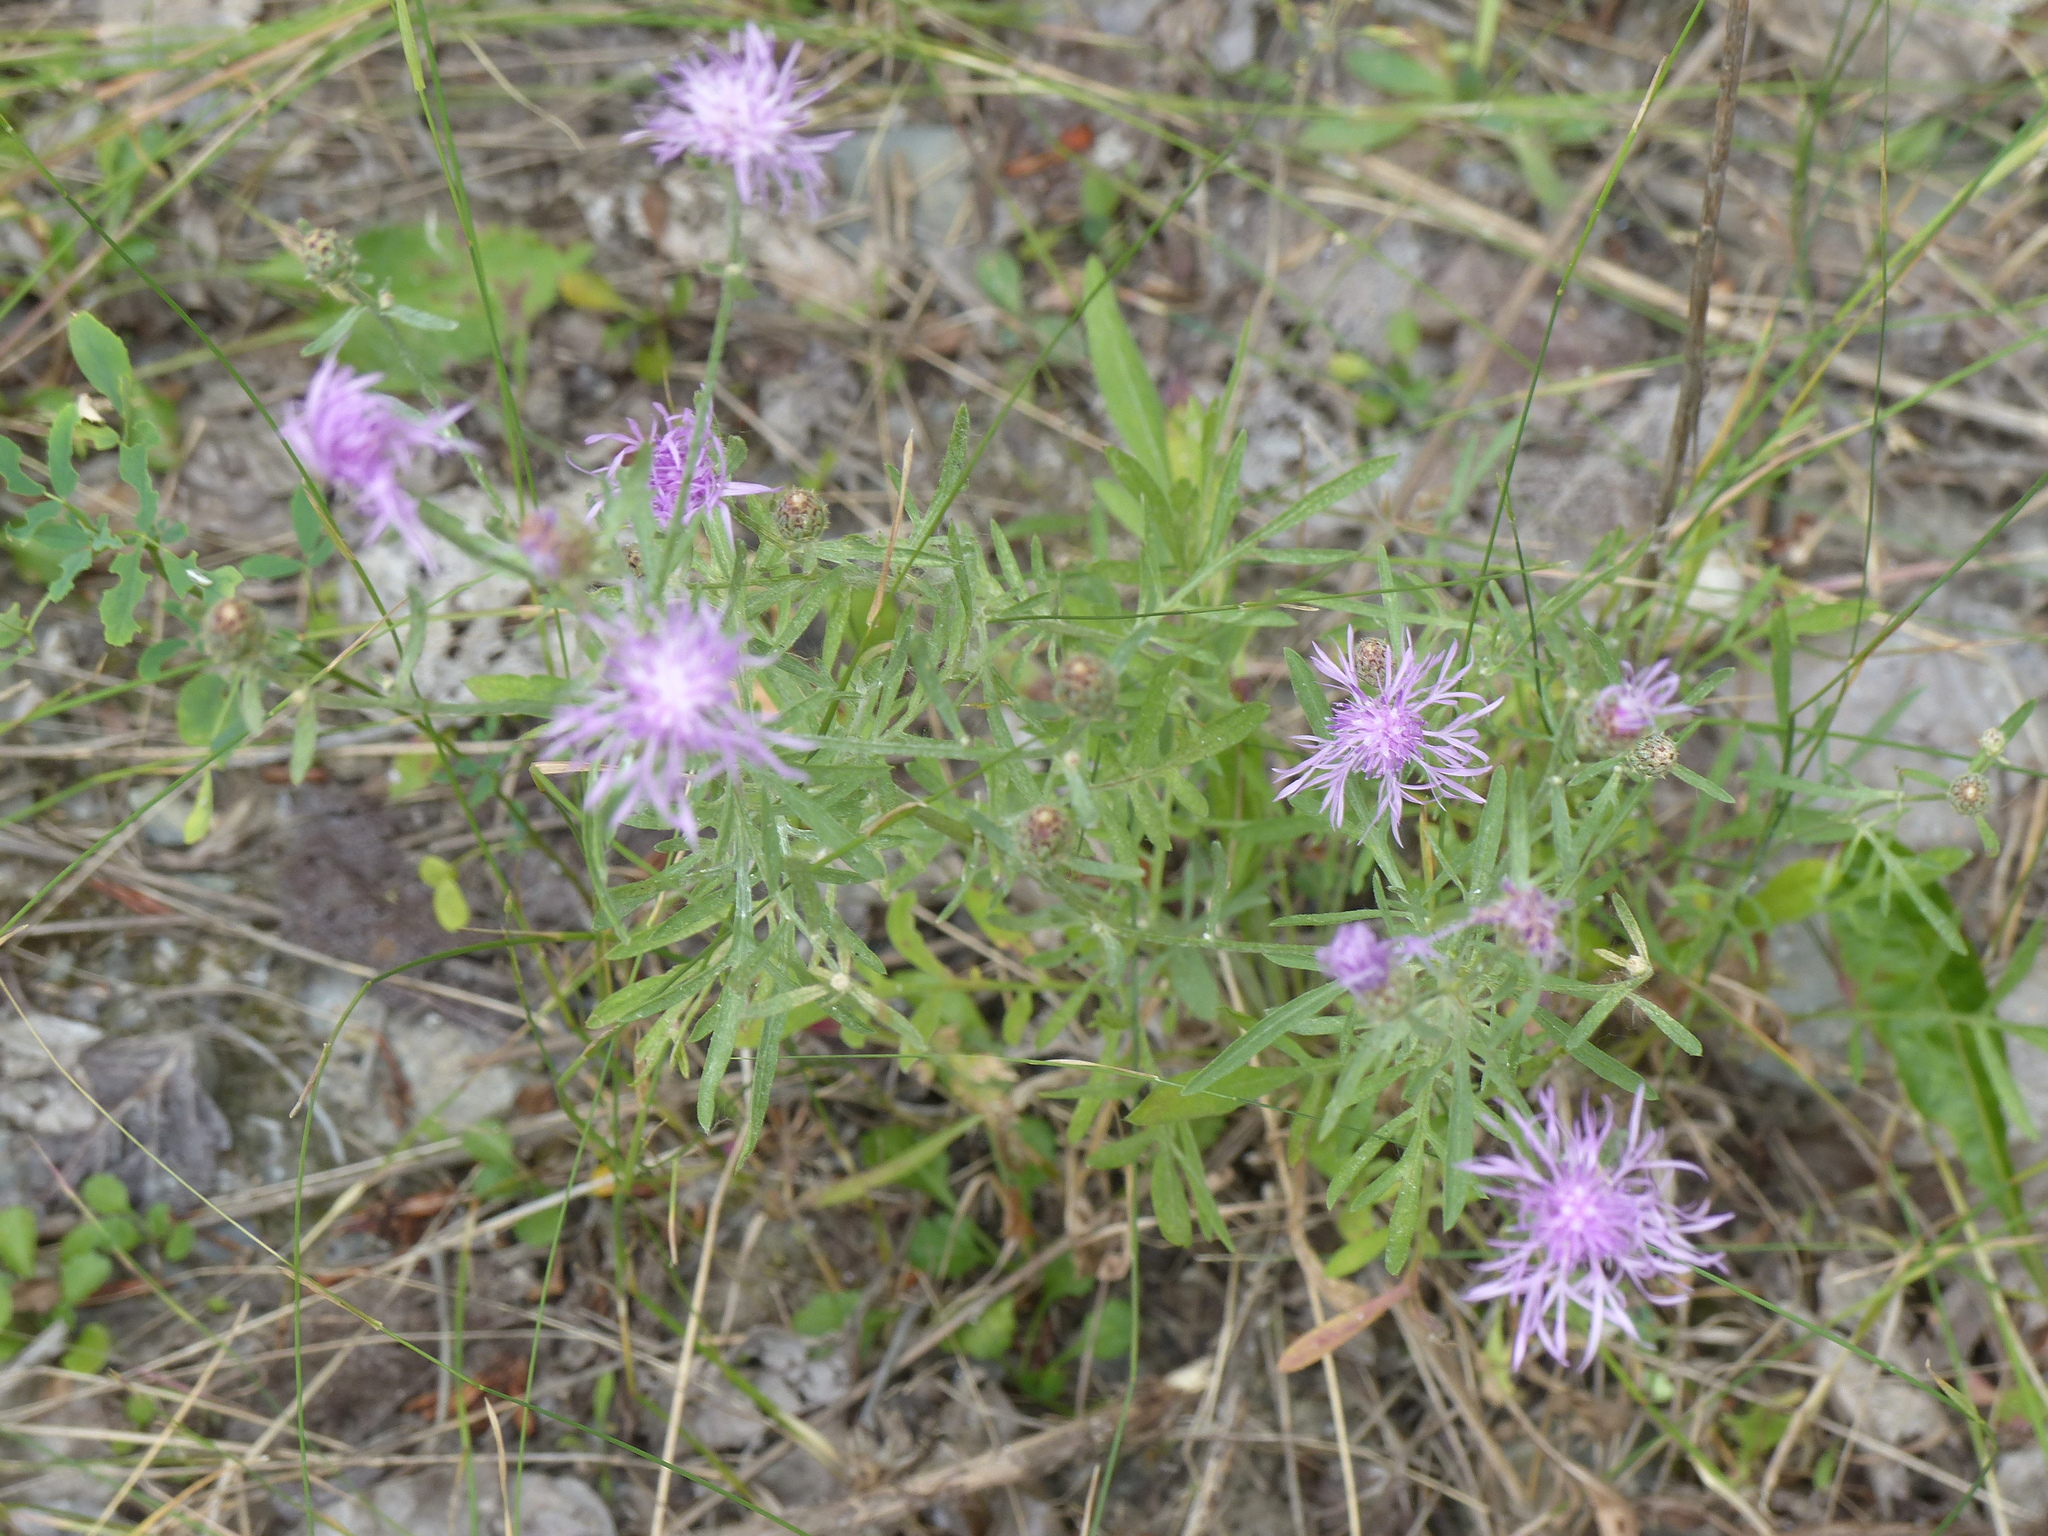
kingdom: Plantae
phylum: Tracheophyta
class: Magnoliopsida
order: Asterales
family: Asteraceae
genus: Centaurea
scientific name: Centaurea stoebe
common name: Spotted knapweed
